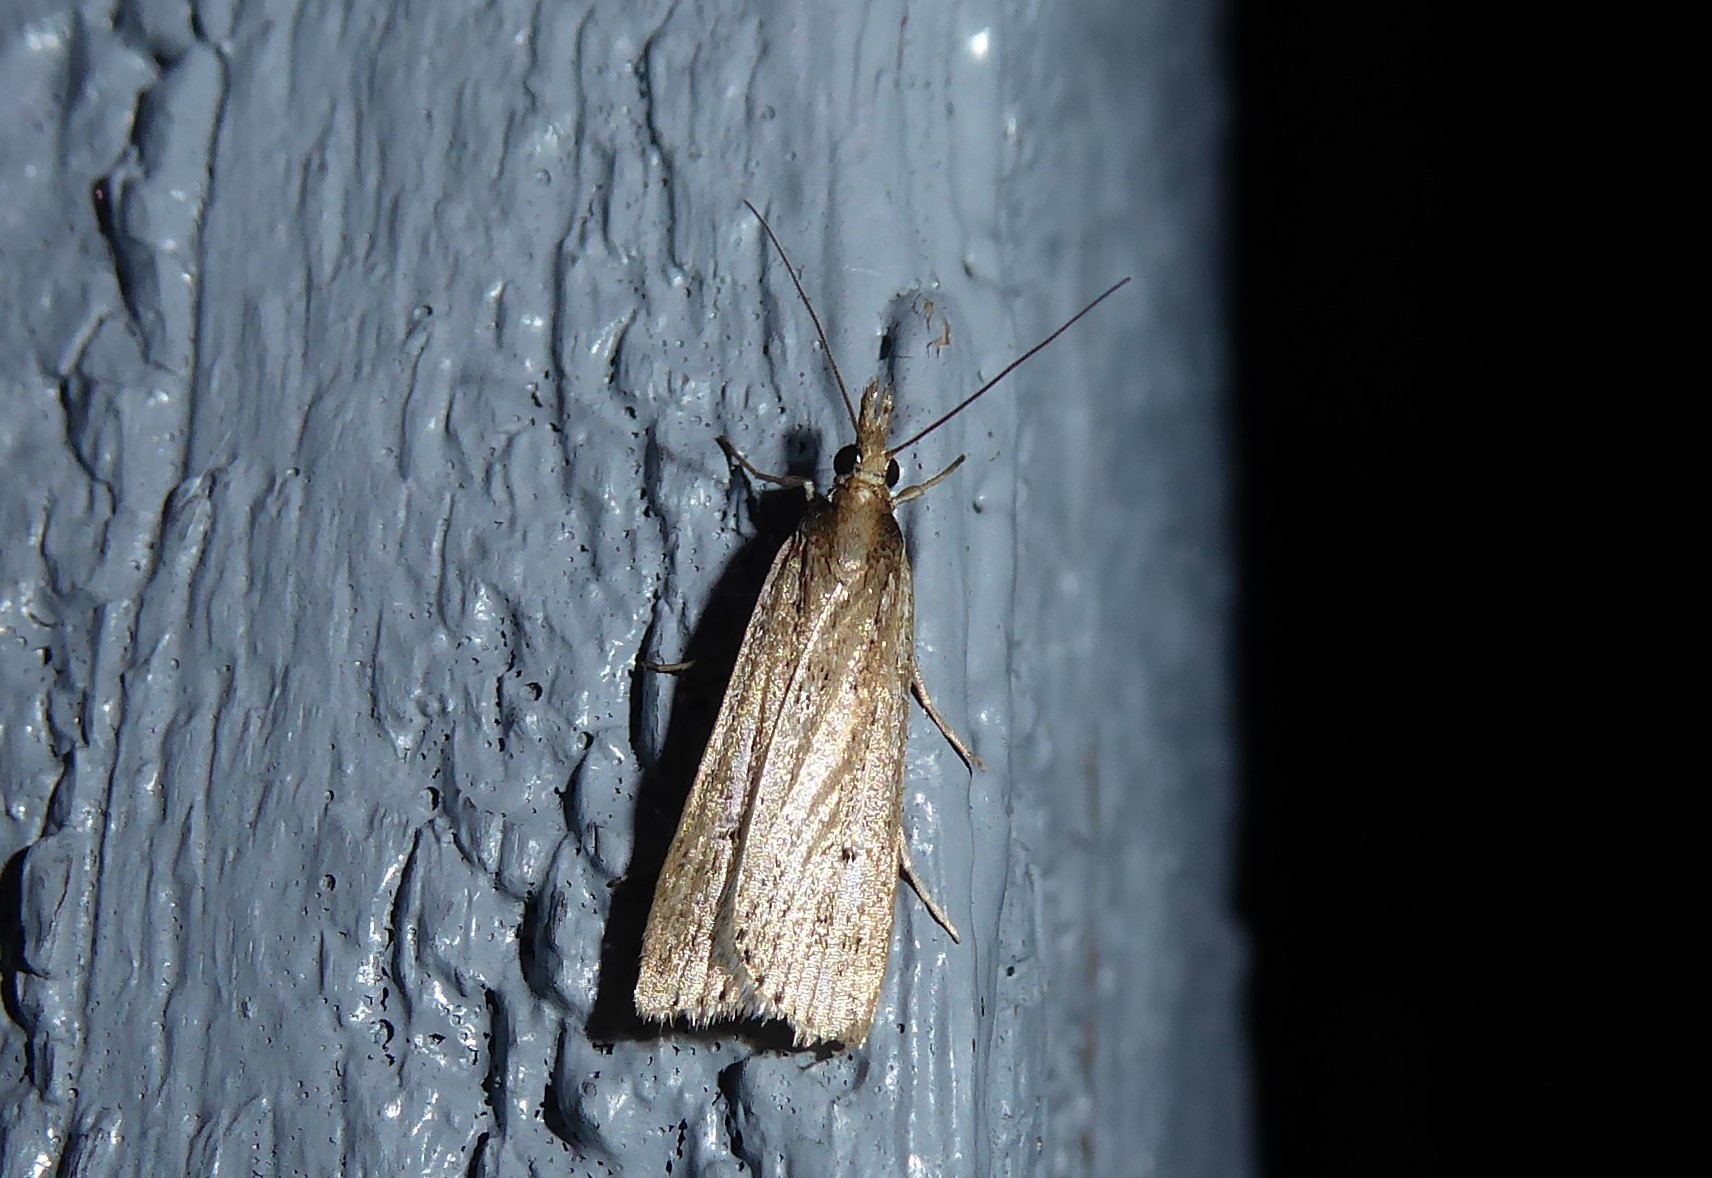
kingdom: Animalia
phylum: Arthropoda
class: Insecta
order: Lepidoptera
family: Crambidae
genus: Eudonia
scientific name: Eudonia sabulosella
